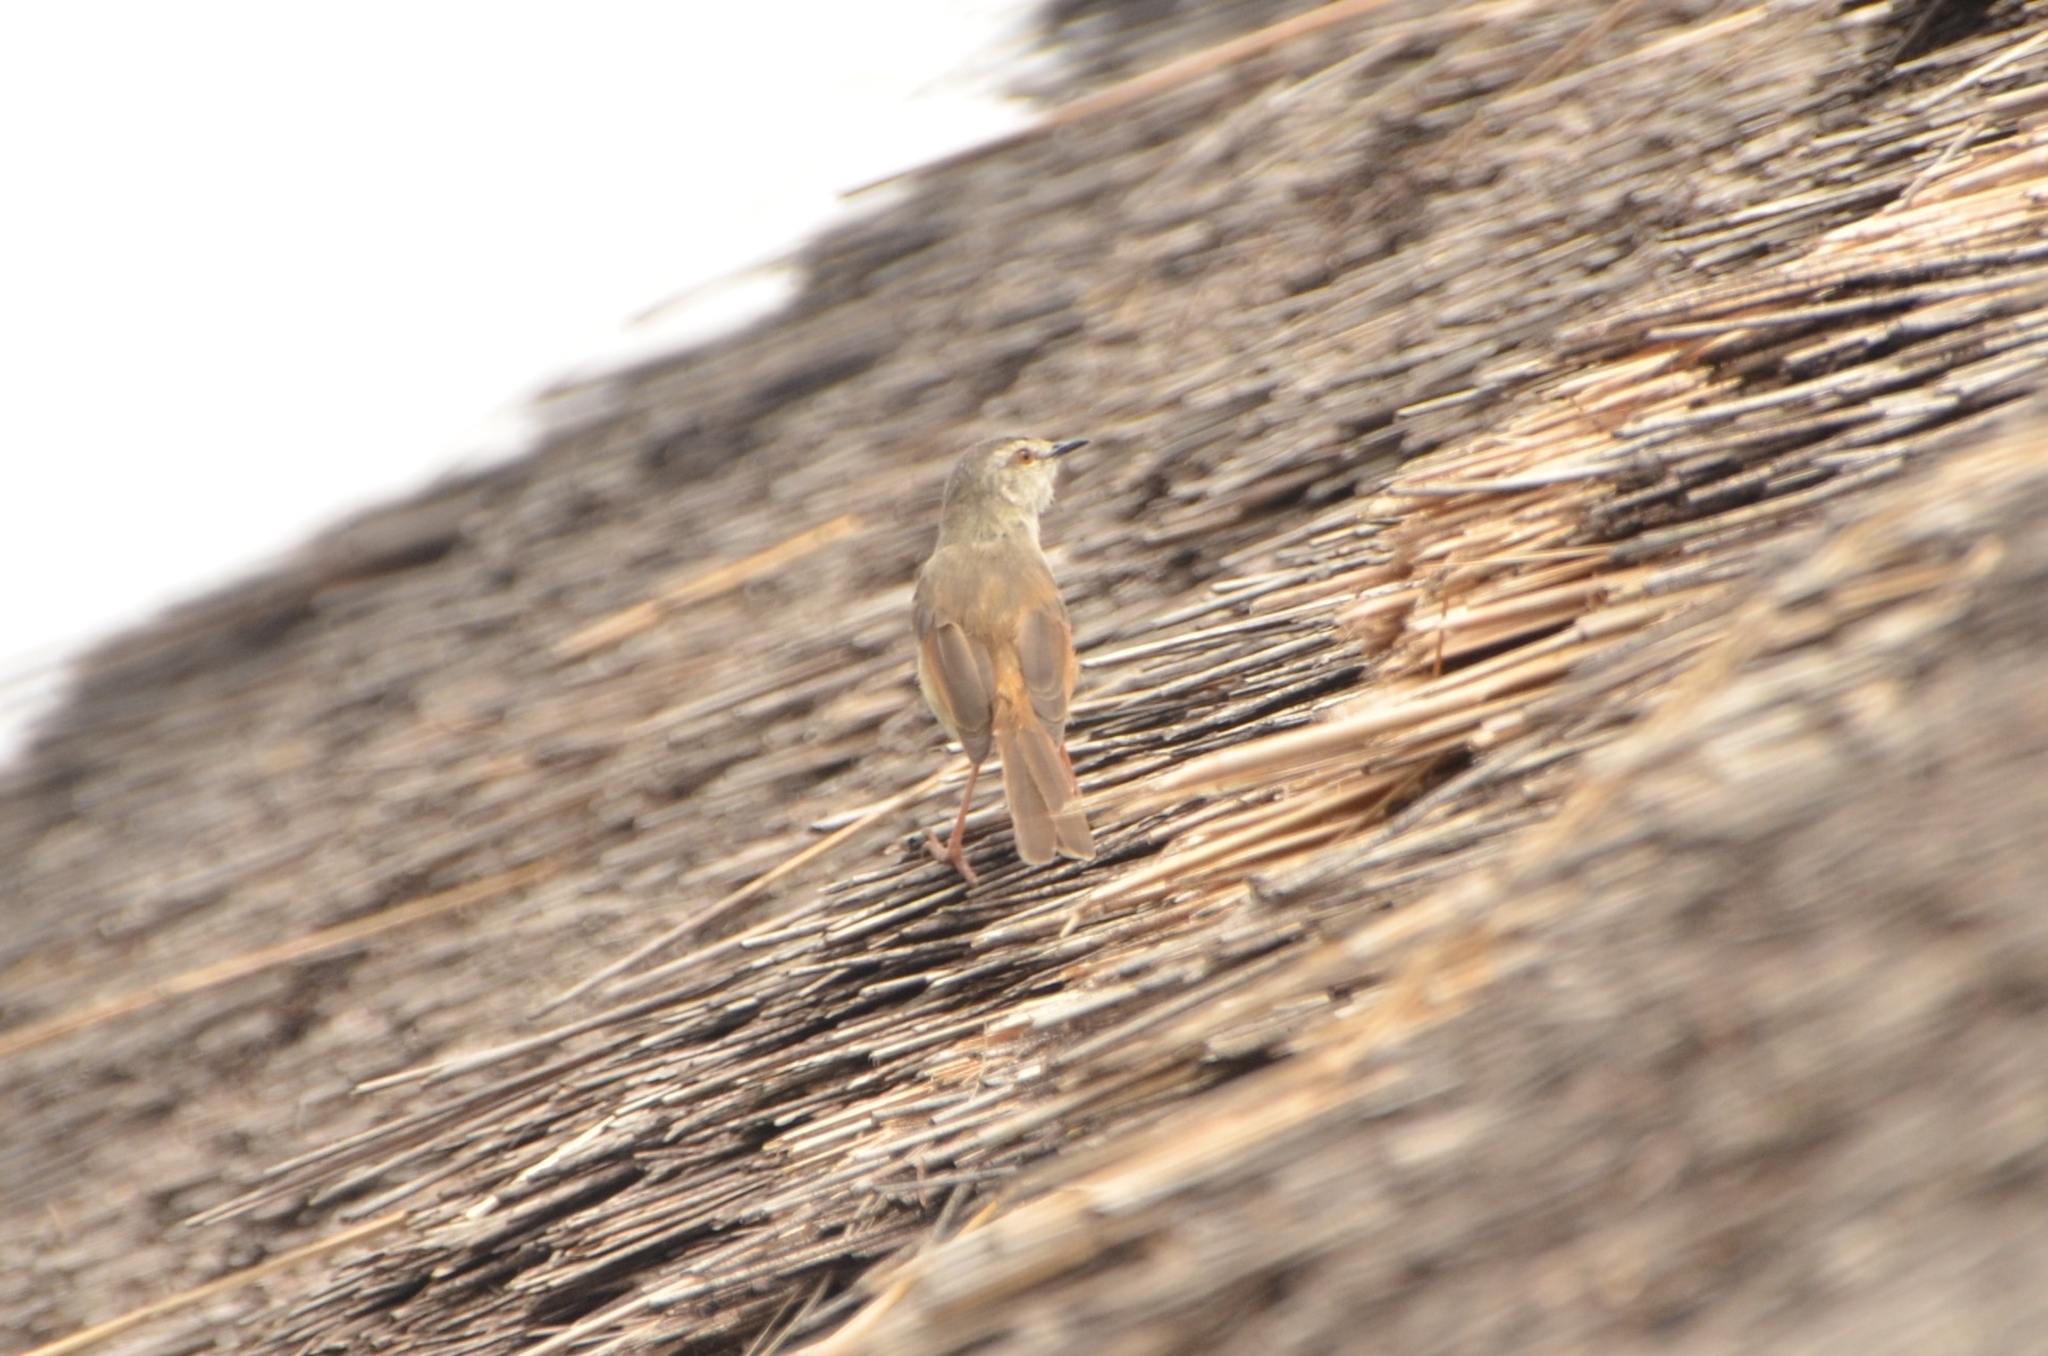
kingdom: Animalia
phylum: Chordata
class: Aves
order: Passeriformes
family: Cisticolidae
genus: Prinia
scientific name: Prinia subflava
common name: Tawny-flanked prinia
